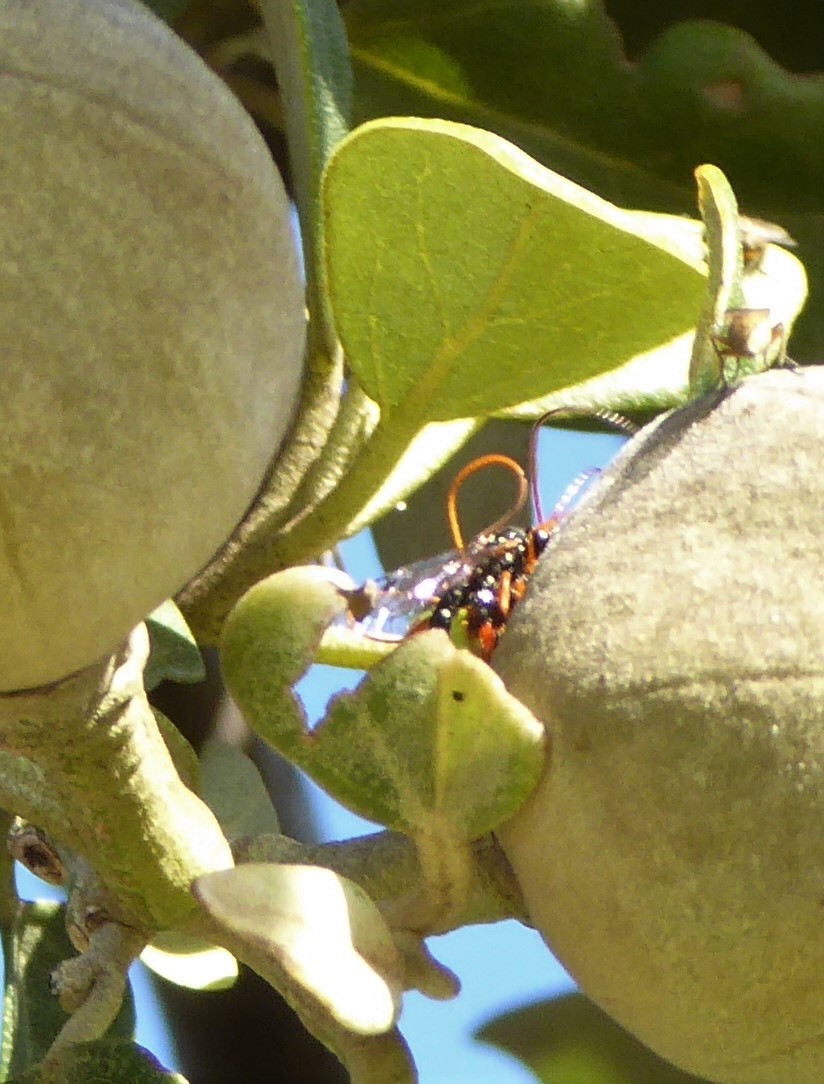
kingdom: Animalia
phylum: Arthropoda
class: Insecta
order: Hymenoptera
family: Ichneumonidae
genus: Echthromorpha
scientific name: Echthromorpha intricatoria
